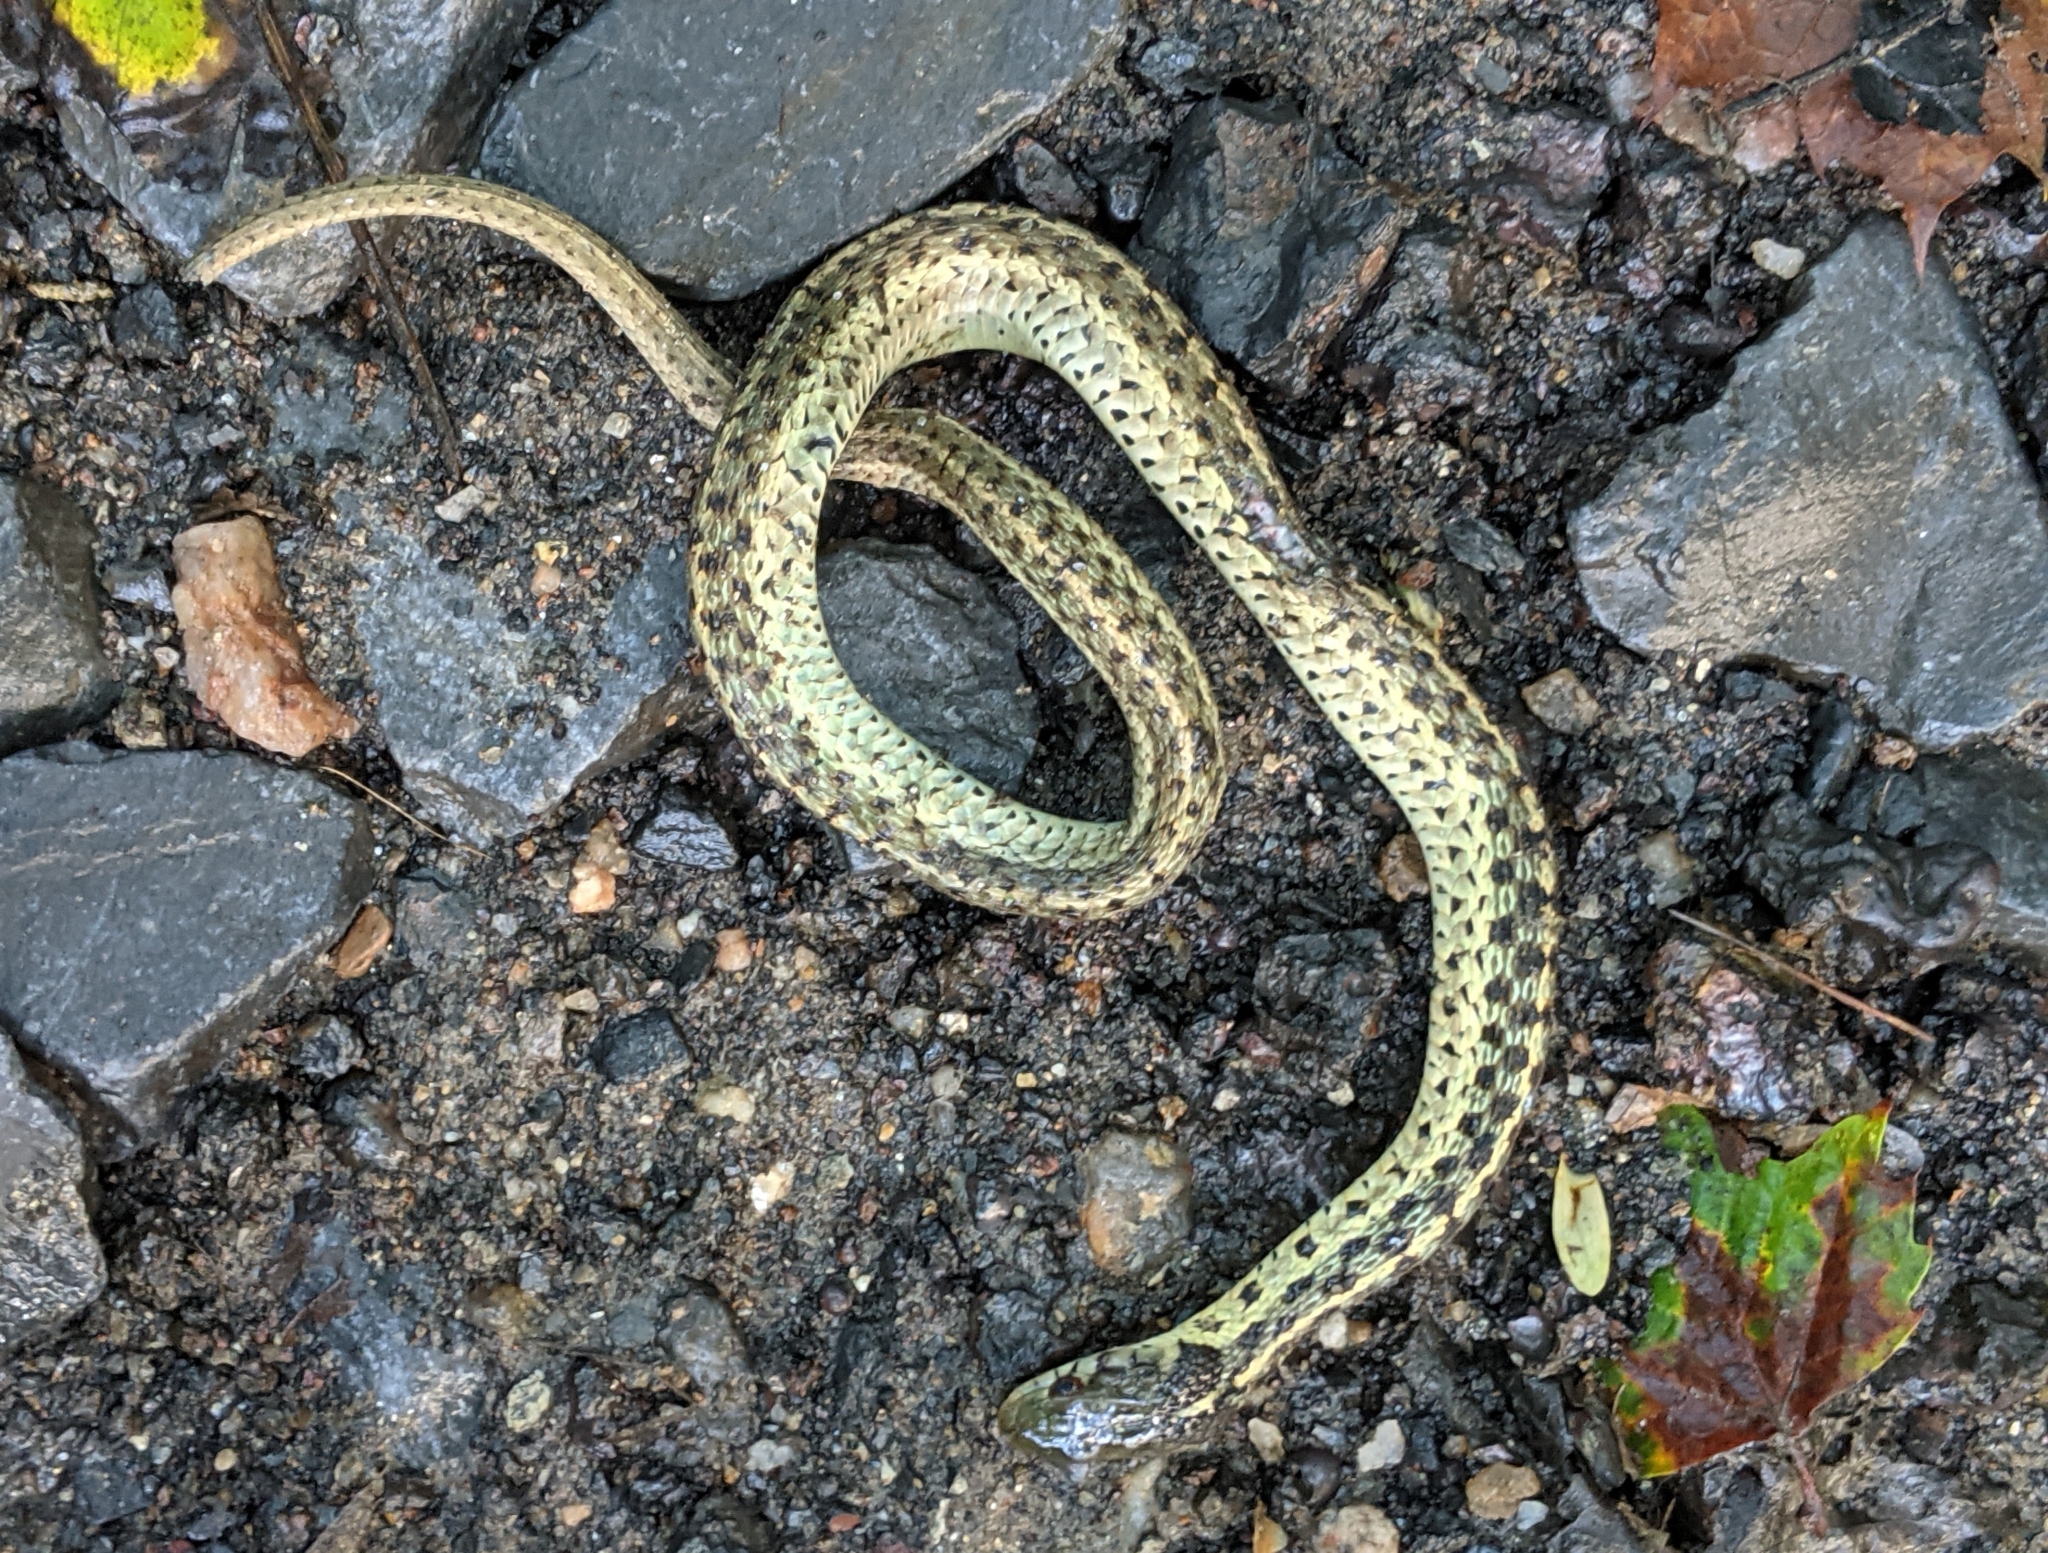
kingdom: Animalia
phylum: Chordata
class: Squamata
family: Colubridae
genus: Thamnophis
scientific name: Thamnophis sirtalis
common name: Common garter snake
